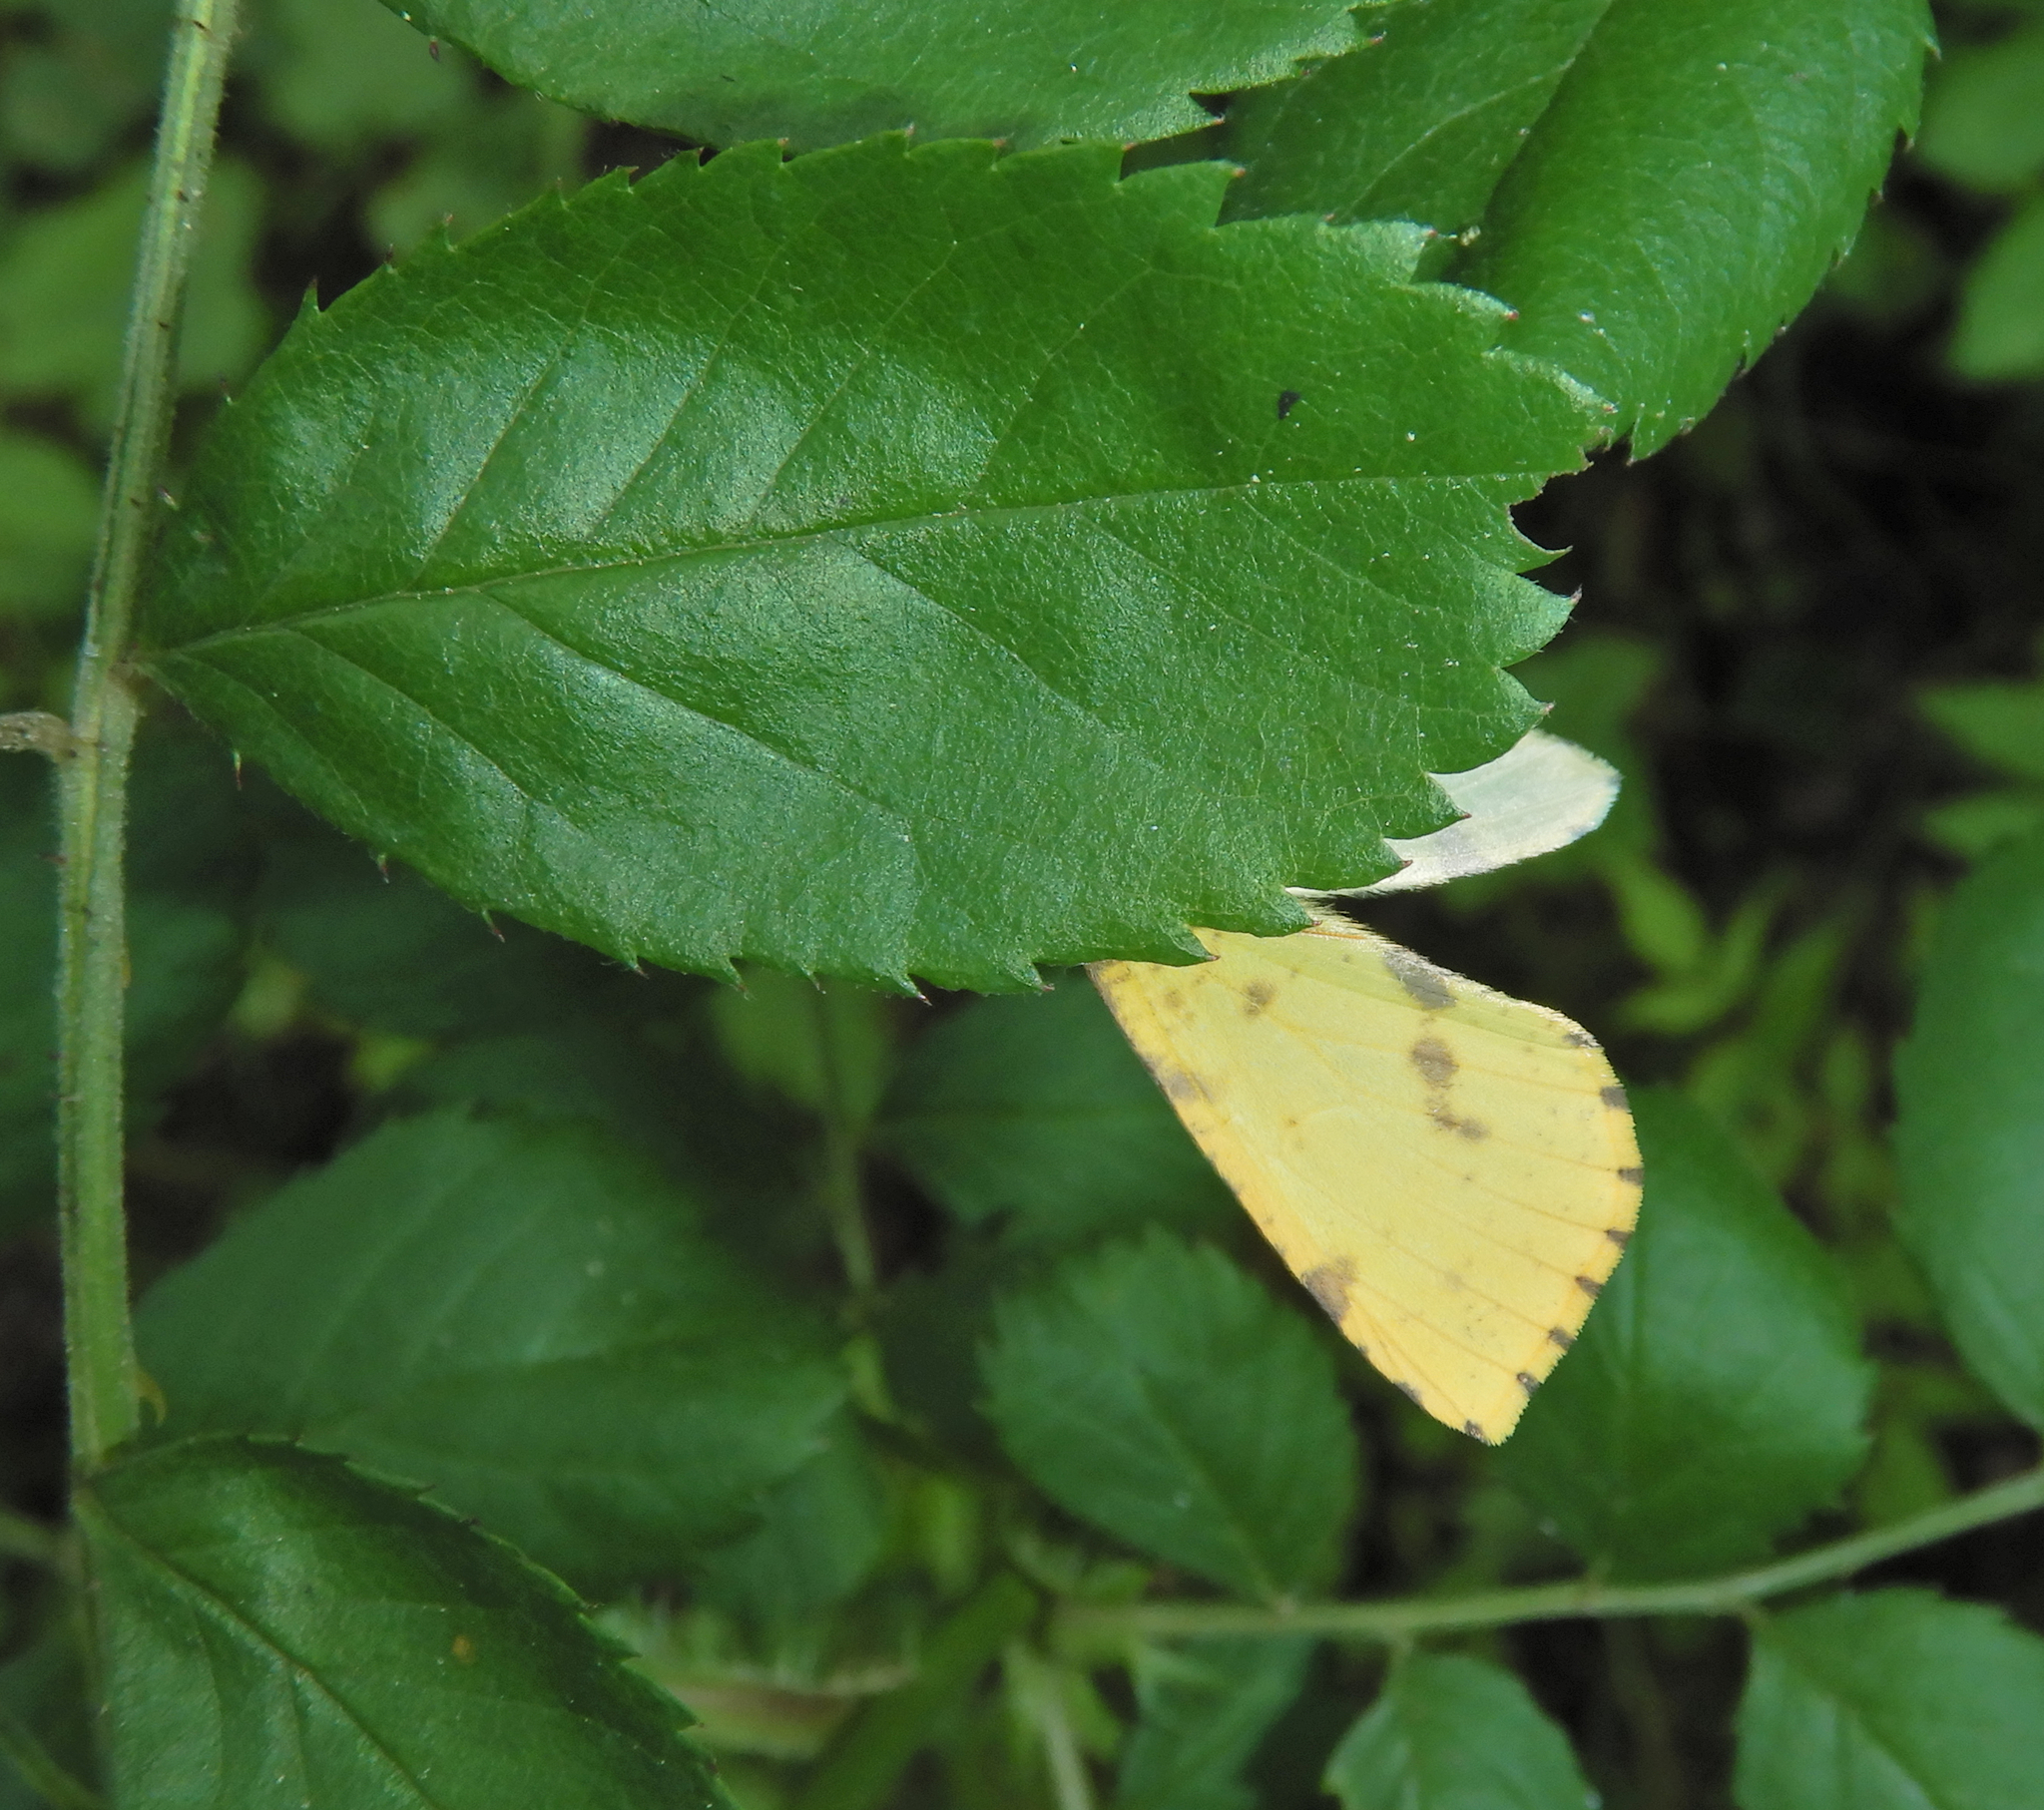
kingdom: Animalia
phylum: Arthropoda
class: Insecta
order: Lepidoptera
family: Geometridae
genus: Xanthotype
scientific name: Xanthotype
